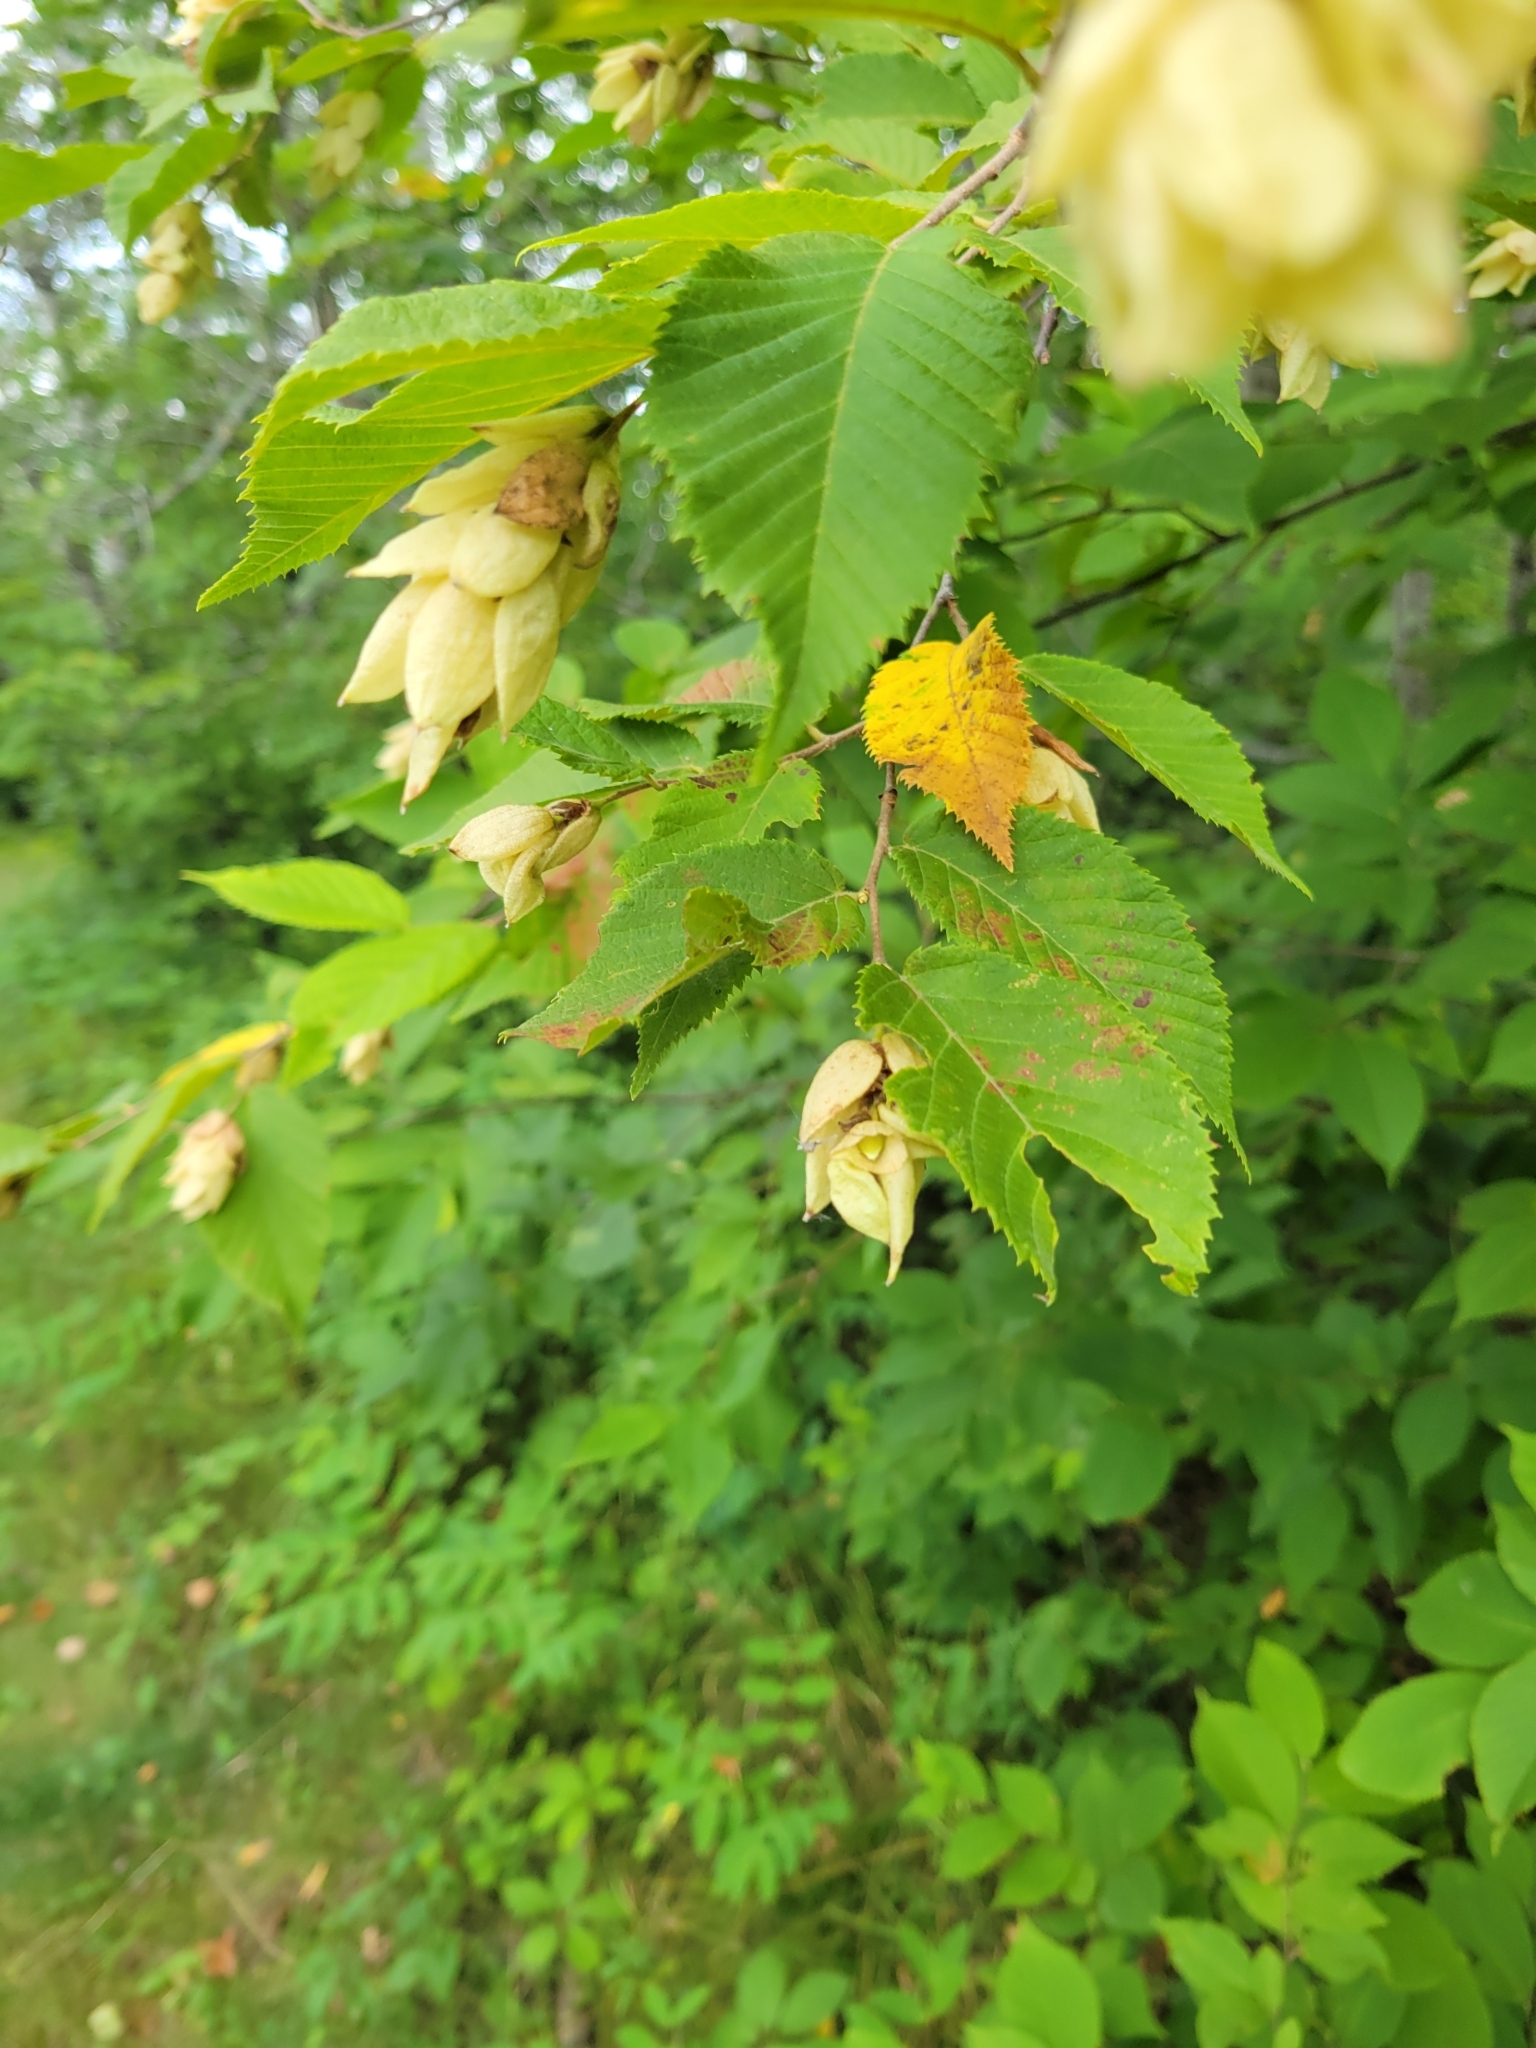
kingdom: Plantae
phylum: Tracheophyta
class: Magnoliopsida
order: Fagales
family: Betulaceae
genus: Ostrya
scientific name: Ostrya virginiana
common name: Ironwood
